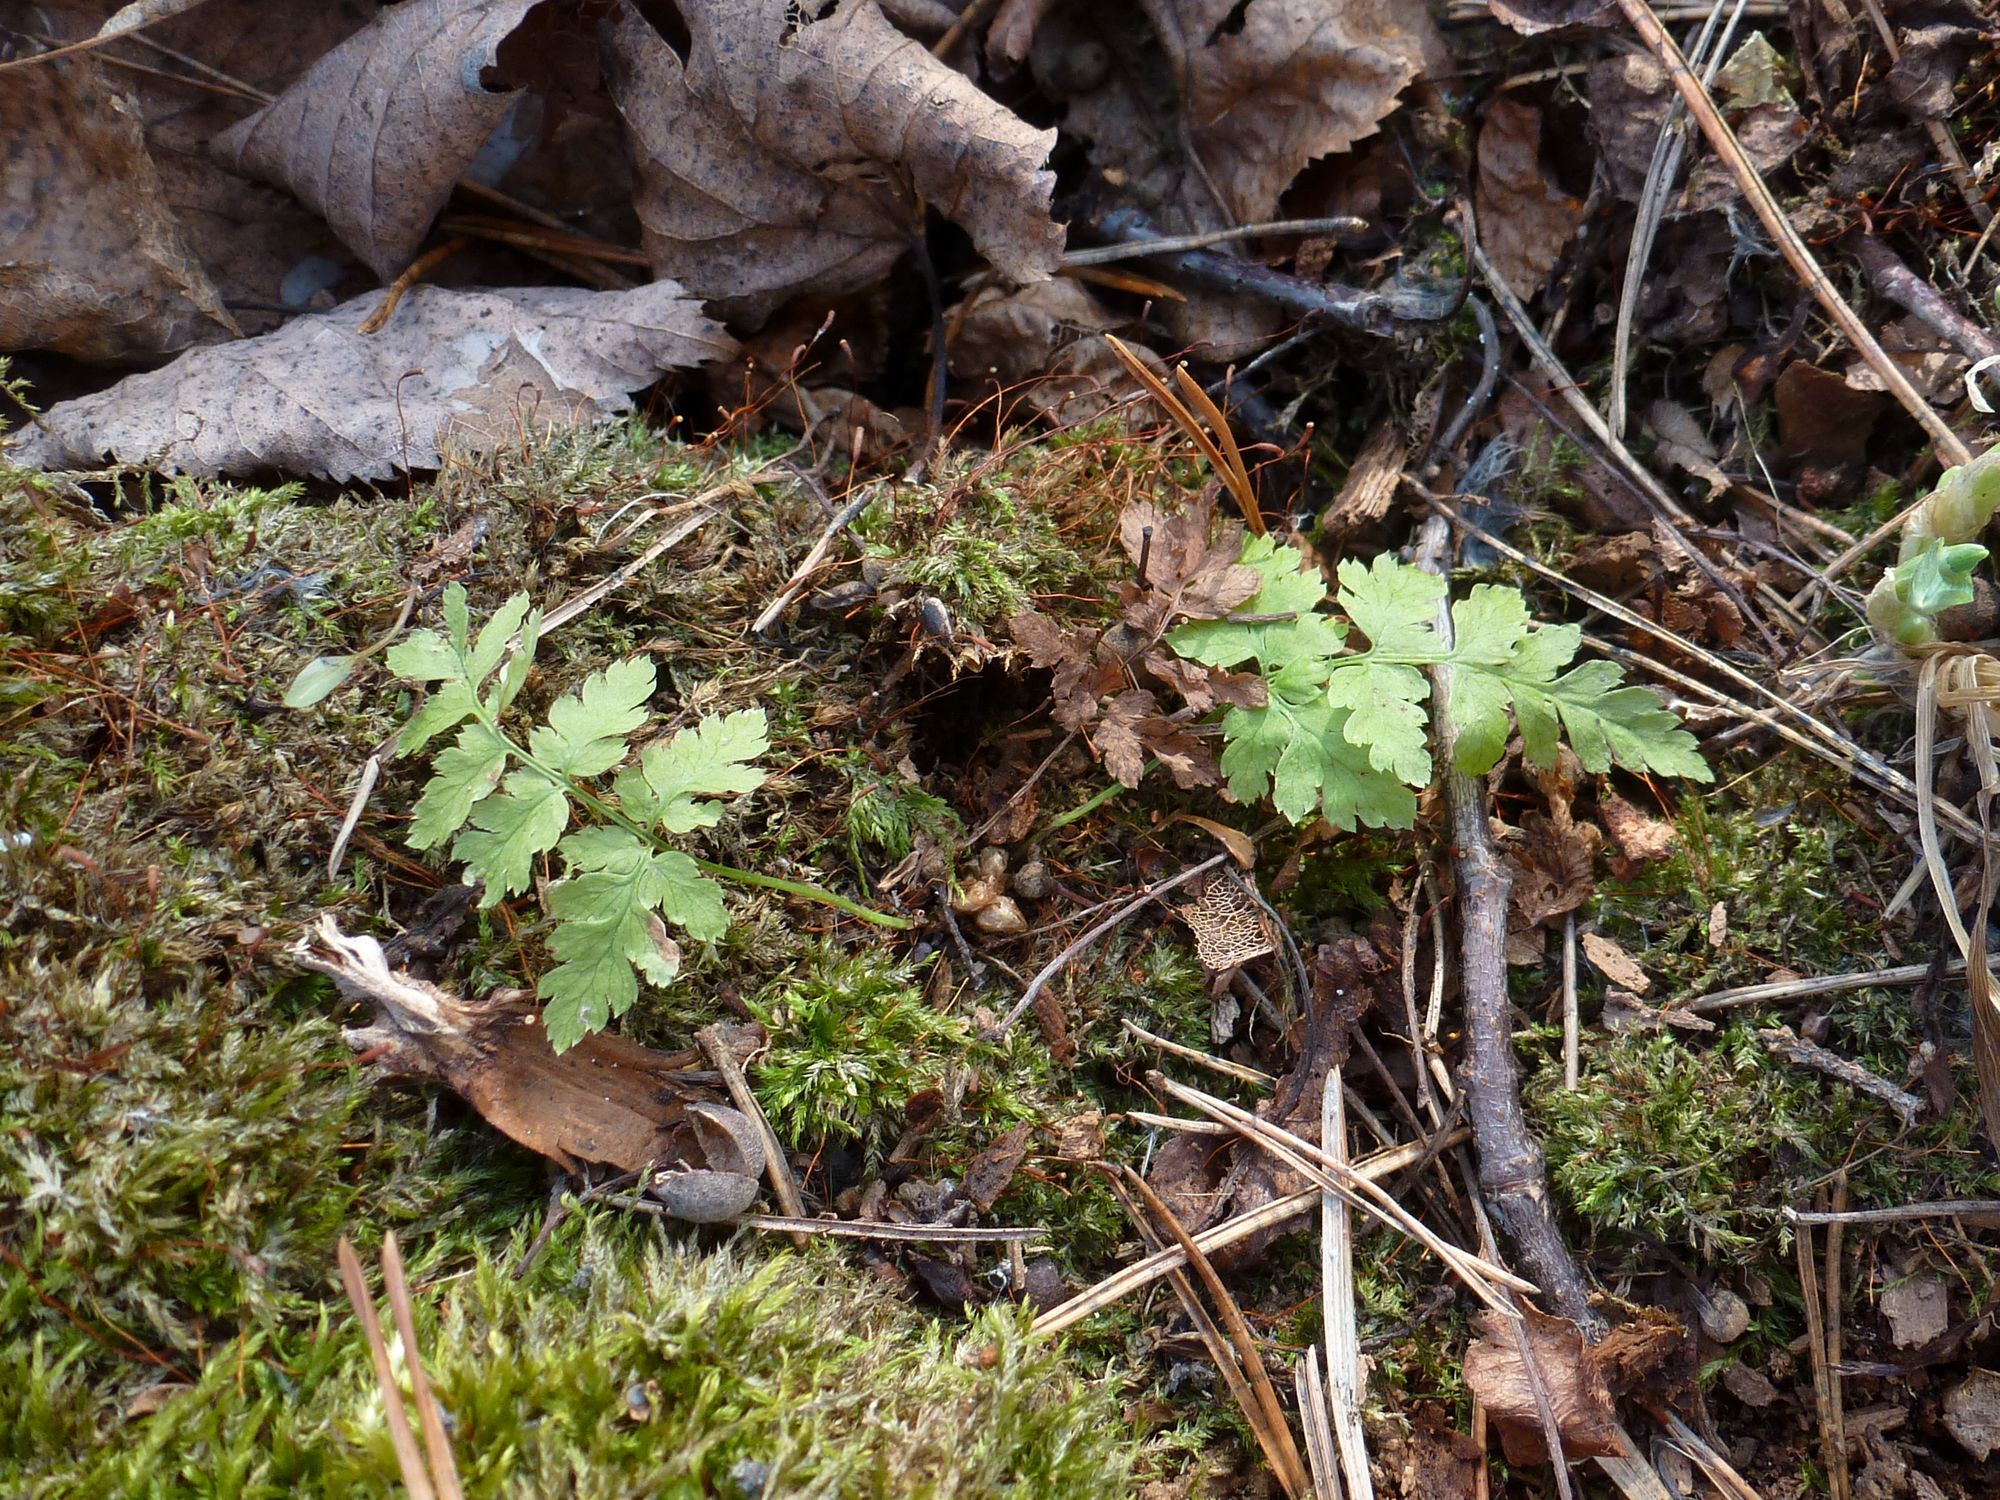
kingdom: Plantae
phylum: Tracheophyta
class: Polypodiopsida
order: Polypodiales
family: Dryopteridaceae
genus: Dryopteris
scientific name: Dryopteris carthusiana
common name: Narrow buckler-fern
